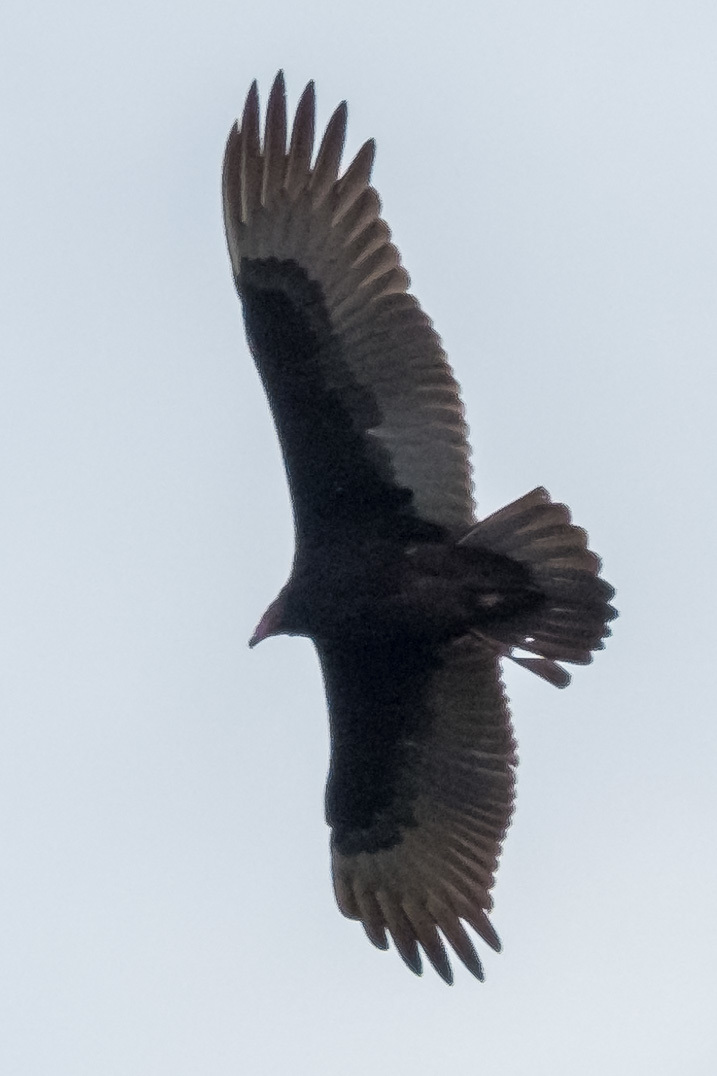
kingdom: Animalia
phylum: Chordata
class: Aves
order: Accipitriformes
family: Cathartidae
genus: Cathartes
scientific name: Cathartes aura
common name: Turkey vulture
